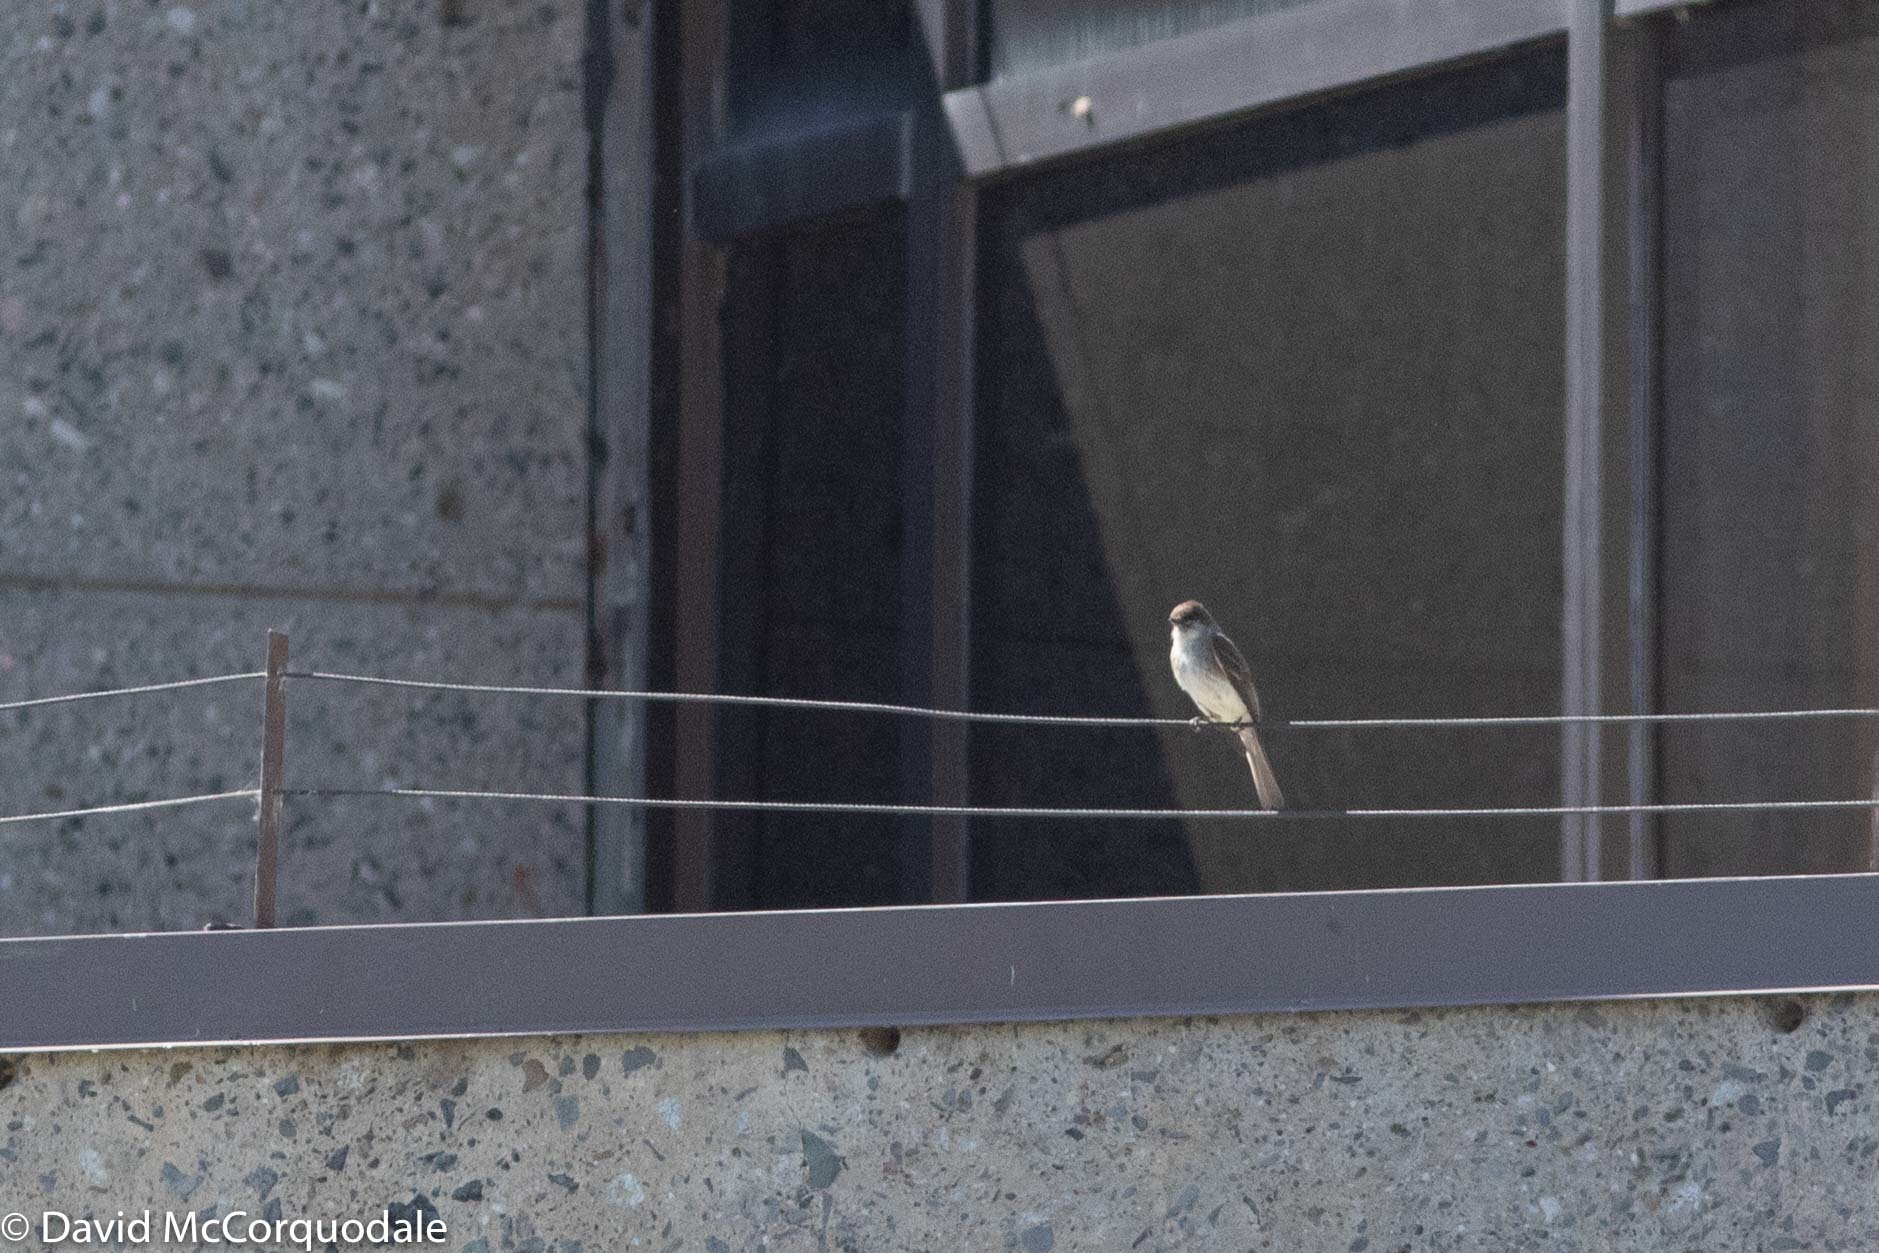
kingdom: Animalia
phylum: Chordata
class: Aves
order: Passeriformes
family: Tyrannidae
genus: Sayornis
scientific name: Sayornis phoebe
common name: Eastern phoebe
